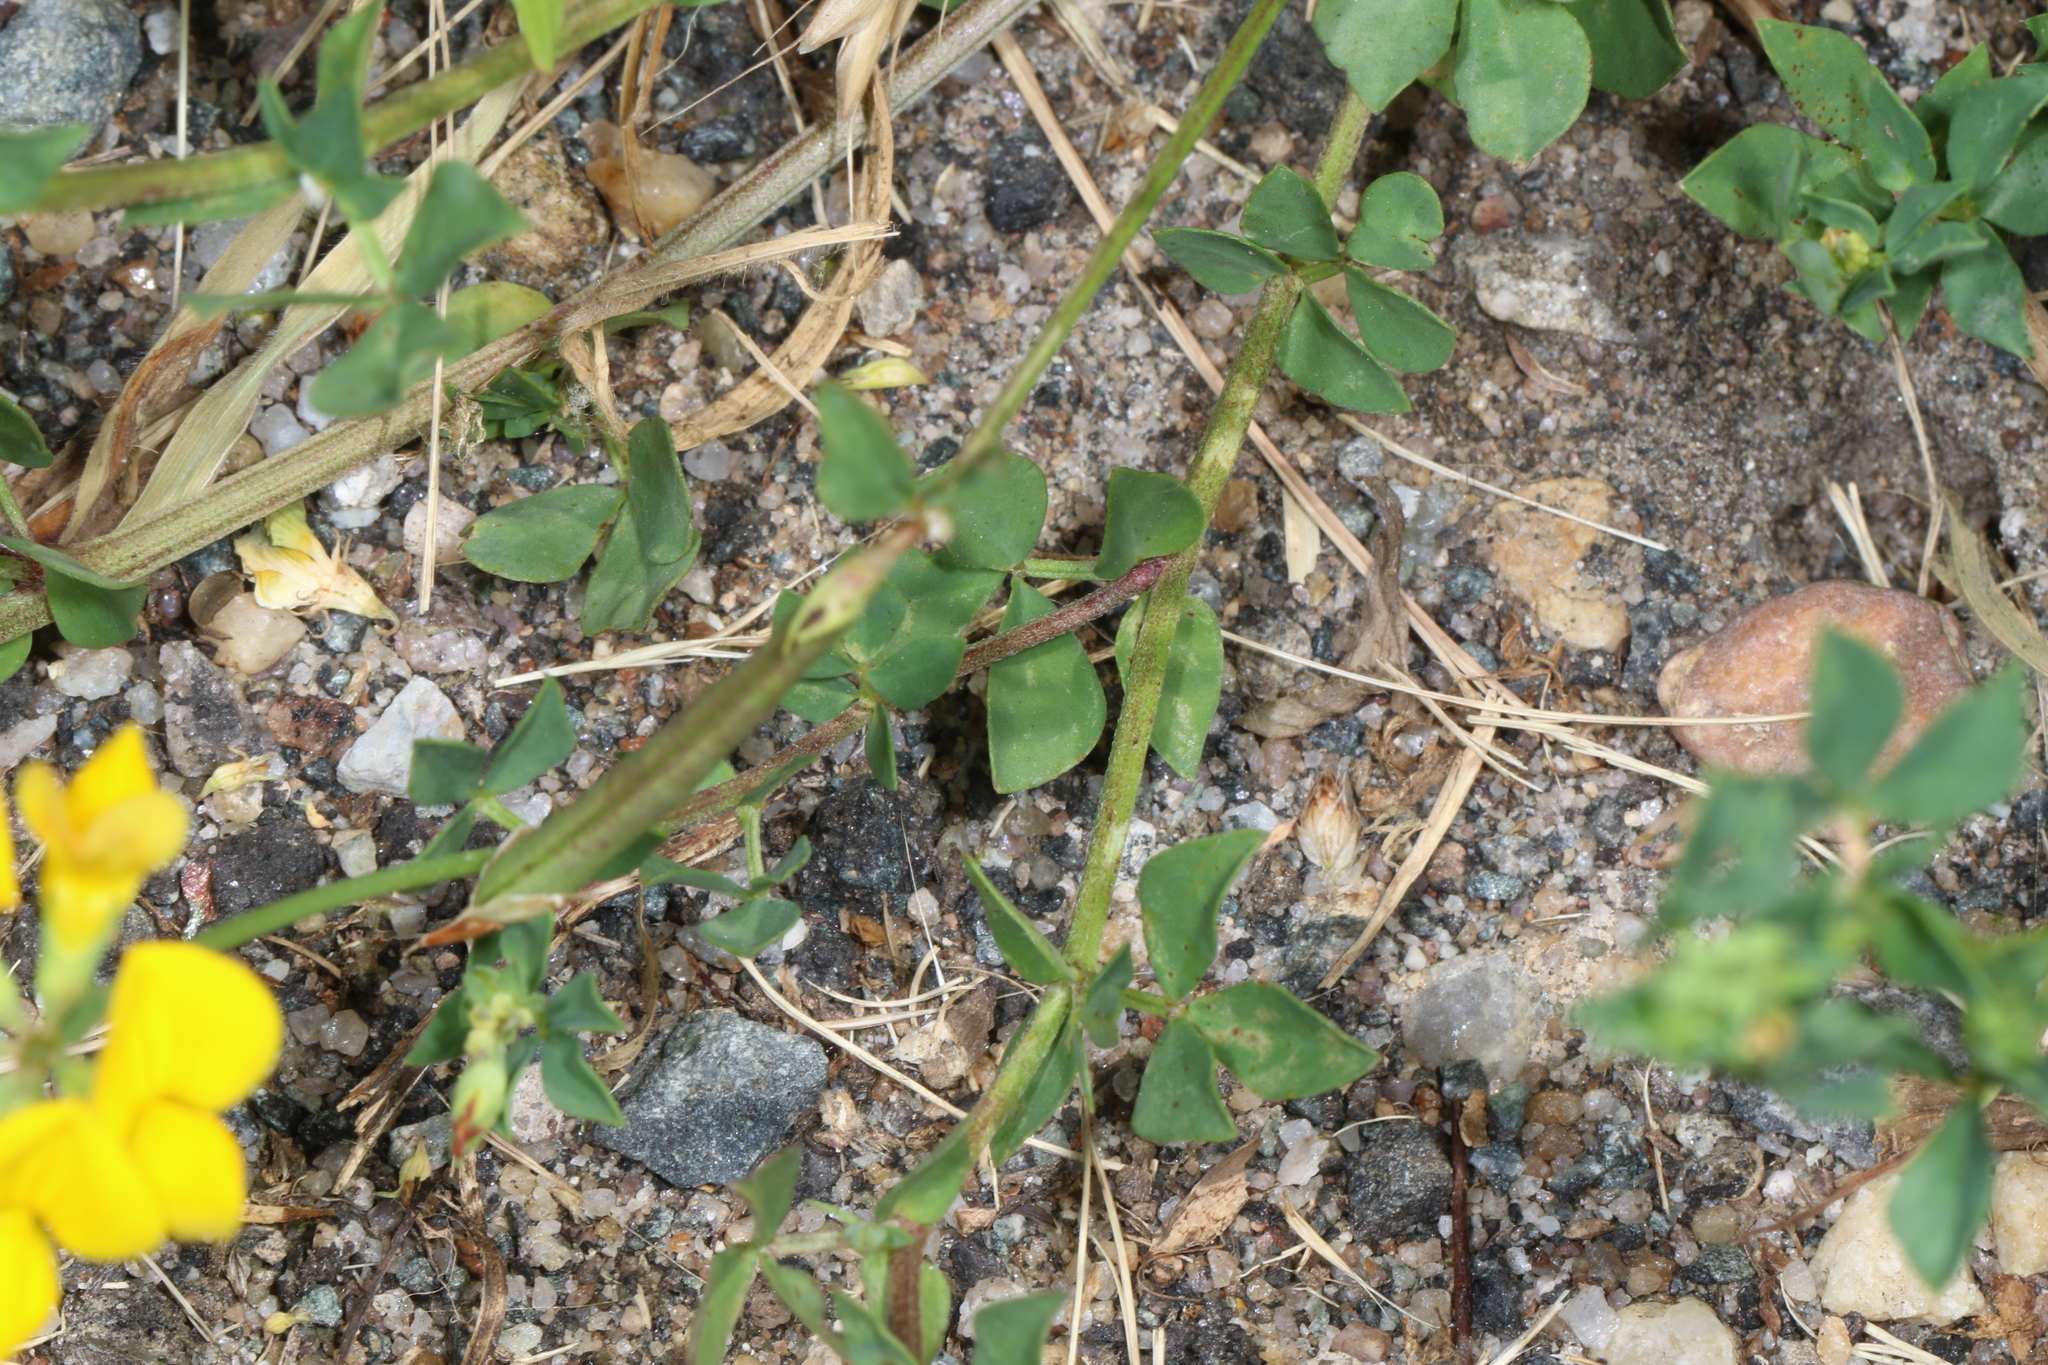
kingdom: Plantae
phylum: Tracheophyta
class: Magnoliopsida
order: Fabales
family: Fabaceae
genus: Lotus
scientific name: Lotus corniculatus
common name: Common bird's-foot-trefoil
